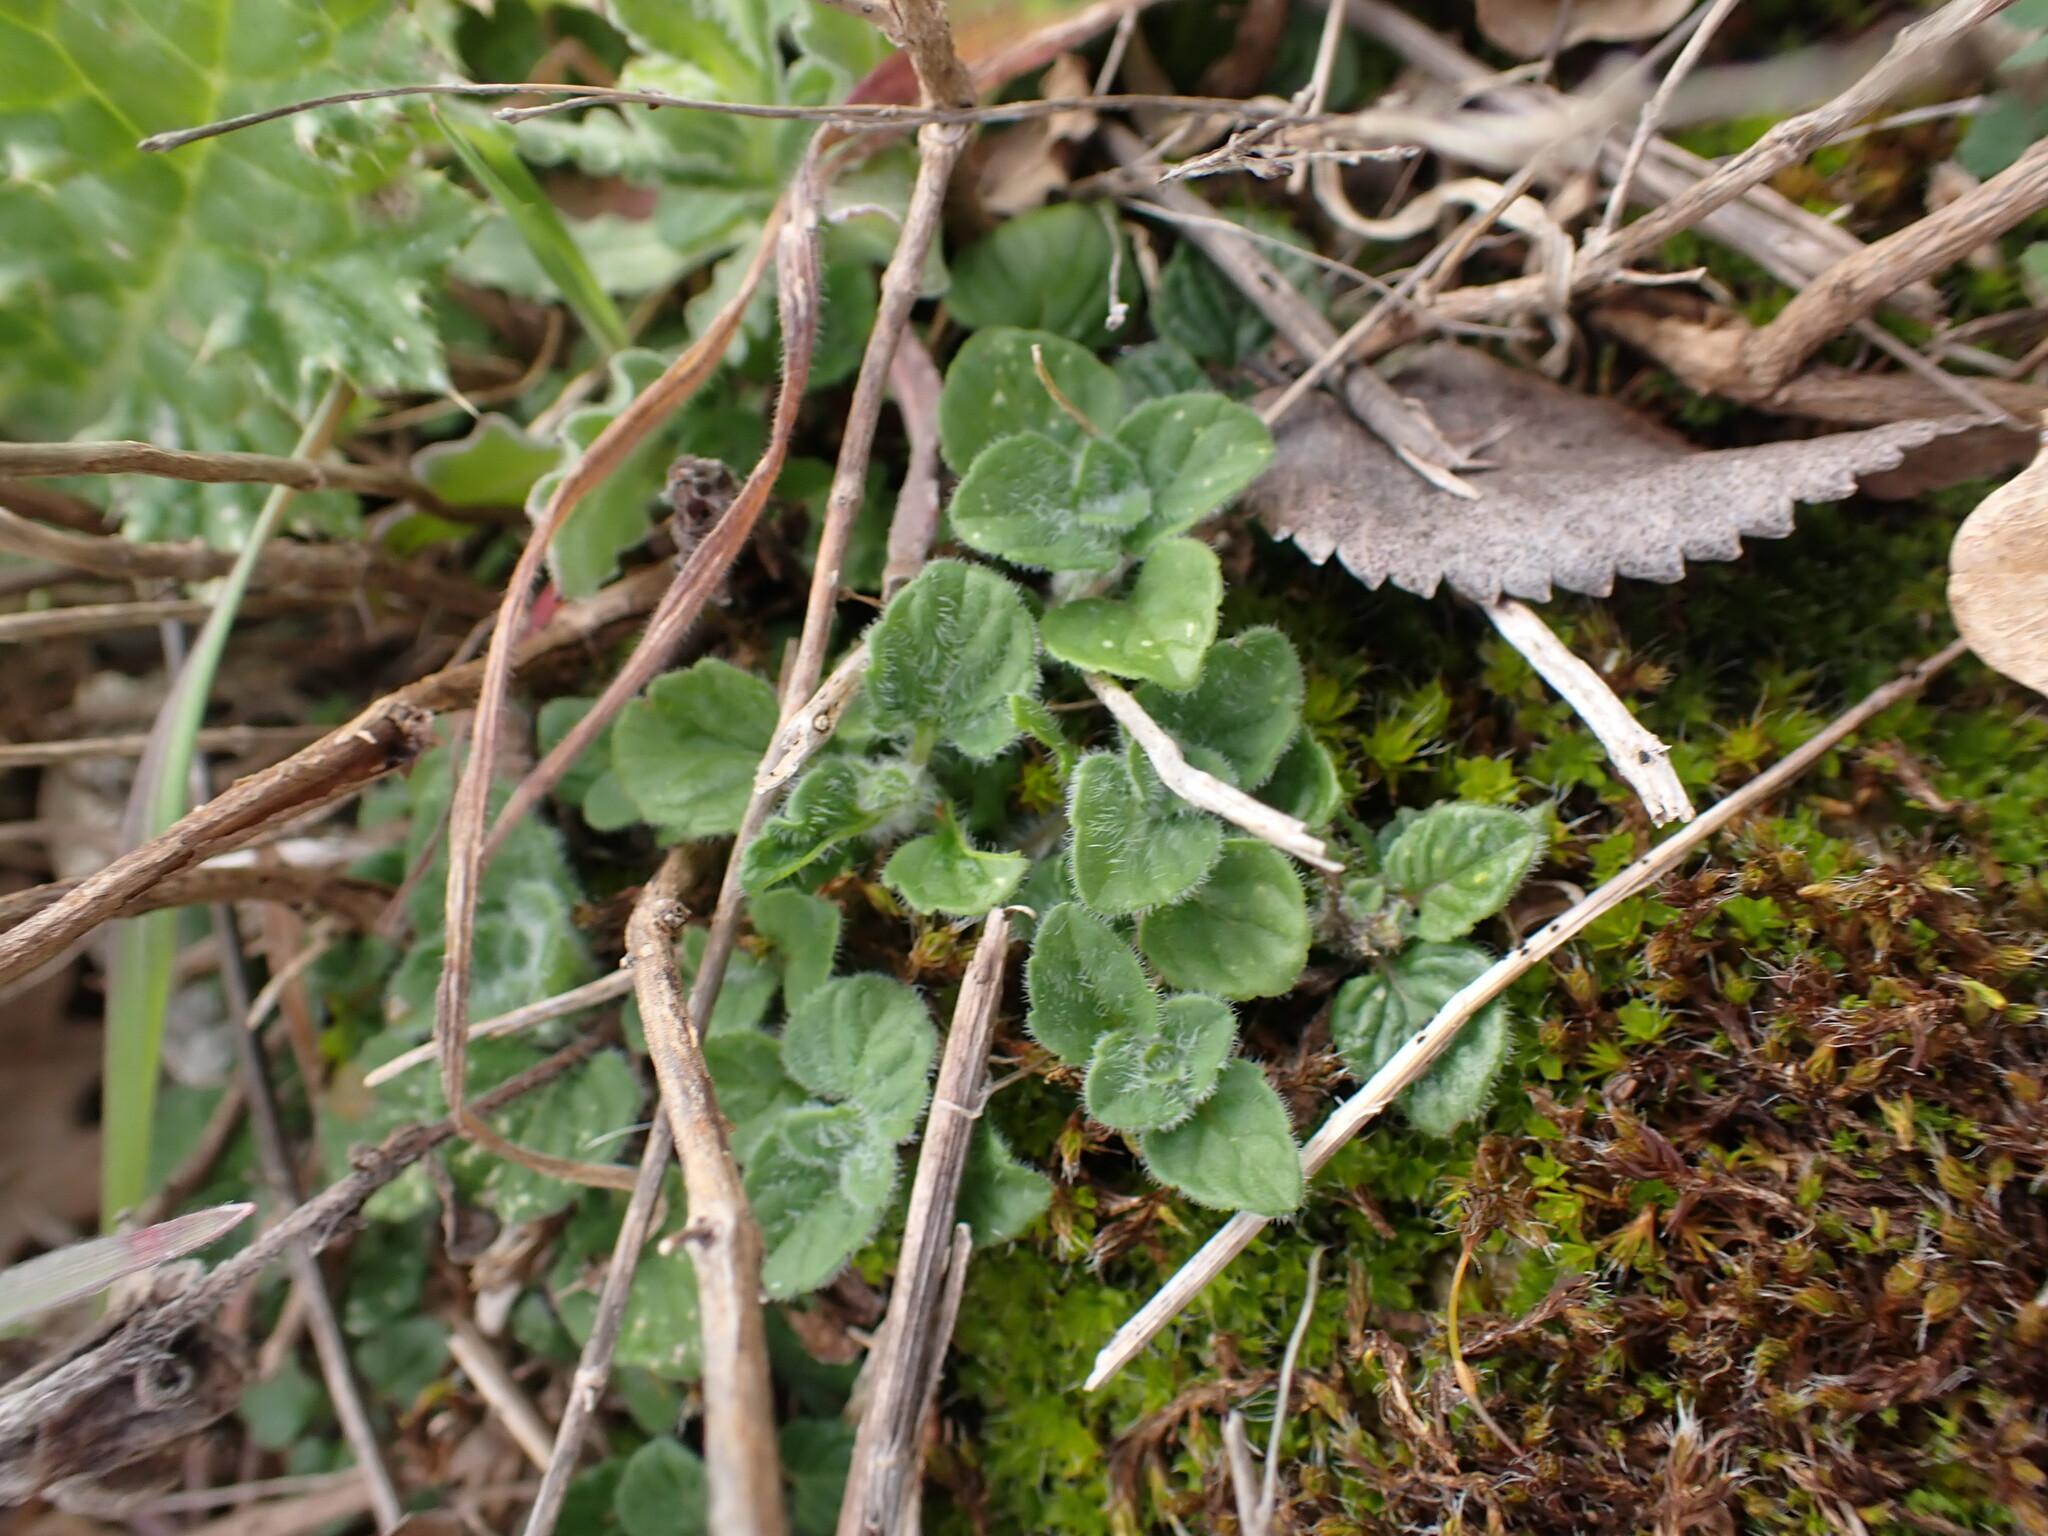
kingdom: Plantae
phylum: Tracheophyta
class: Magnoliopsida
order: Lamiales
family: Lamiaceae
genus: Clinopodium
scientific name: Clinopodium nepeta
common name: Lesser calamint
